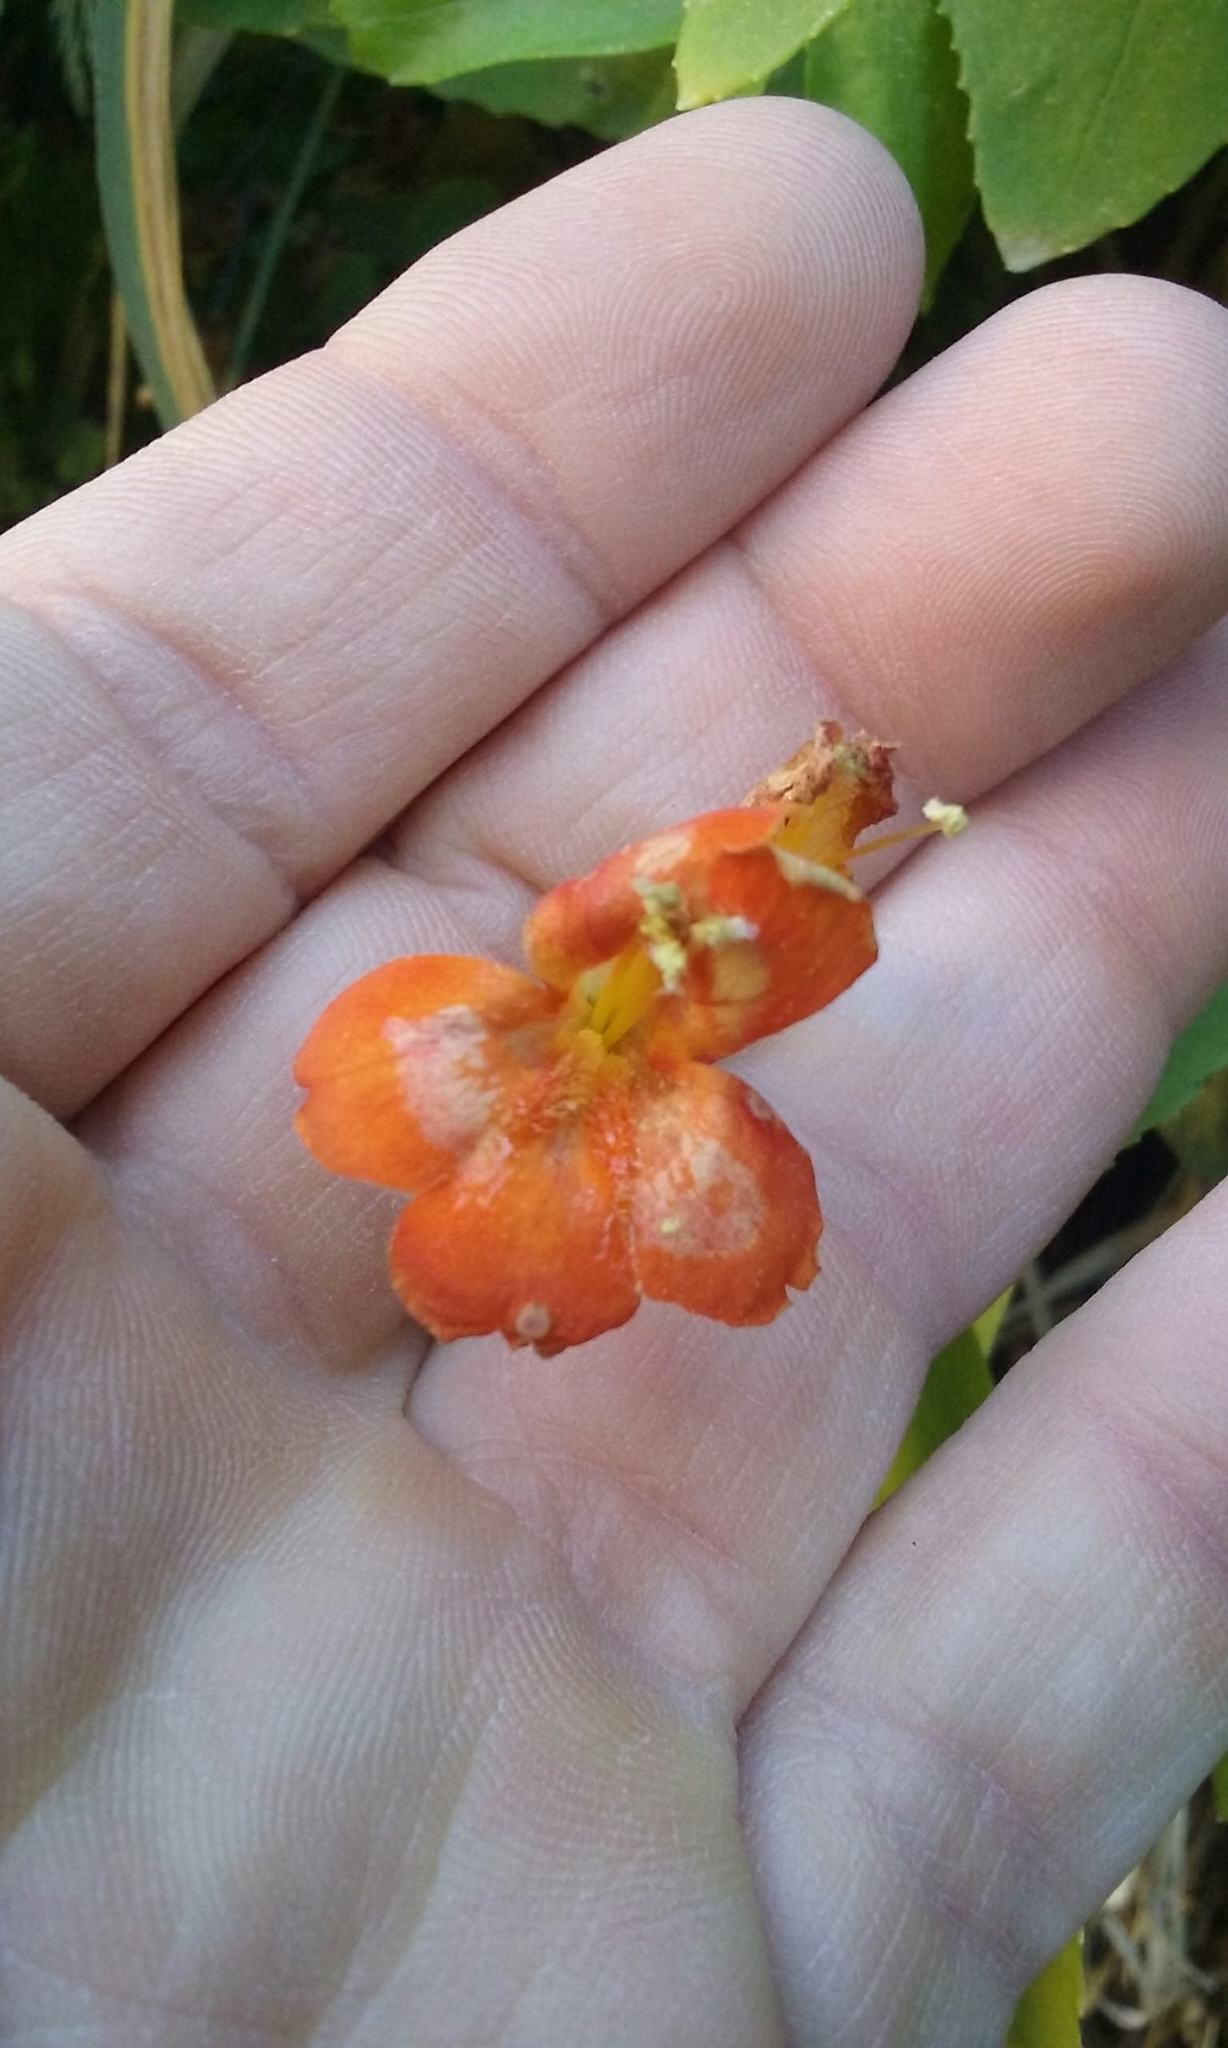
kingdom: Plantae
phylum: Tracheophyta
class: Magnoliopsida
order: Lamiales
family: Phrymaceae
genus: Erythranthe
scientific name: Erythranthe verbenacea
